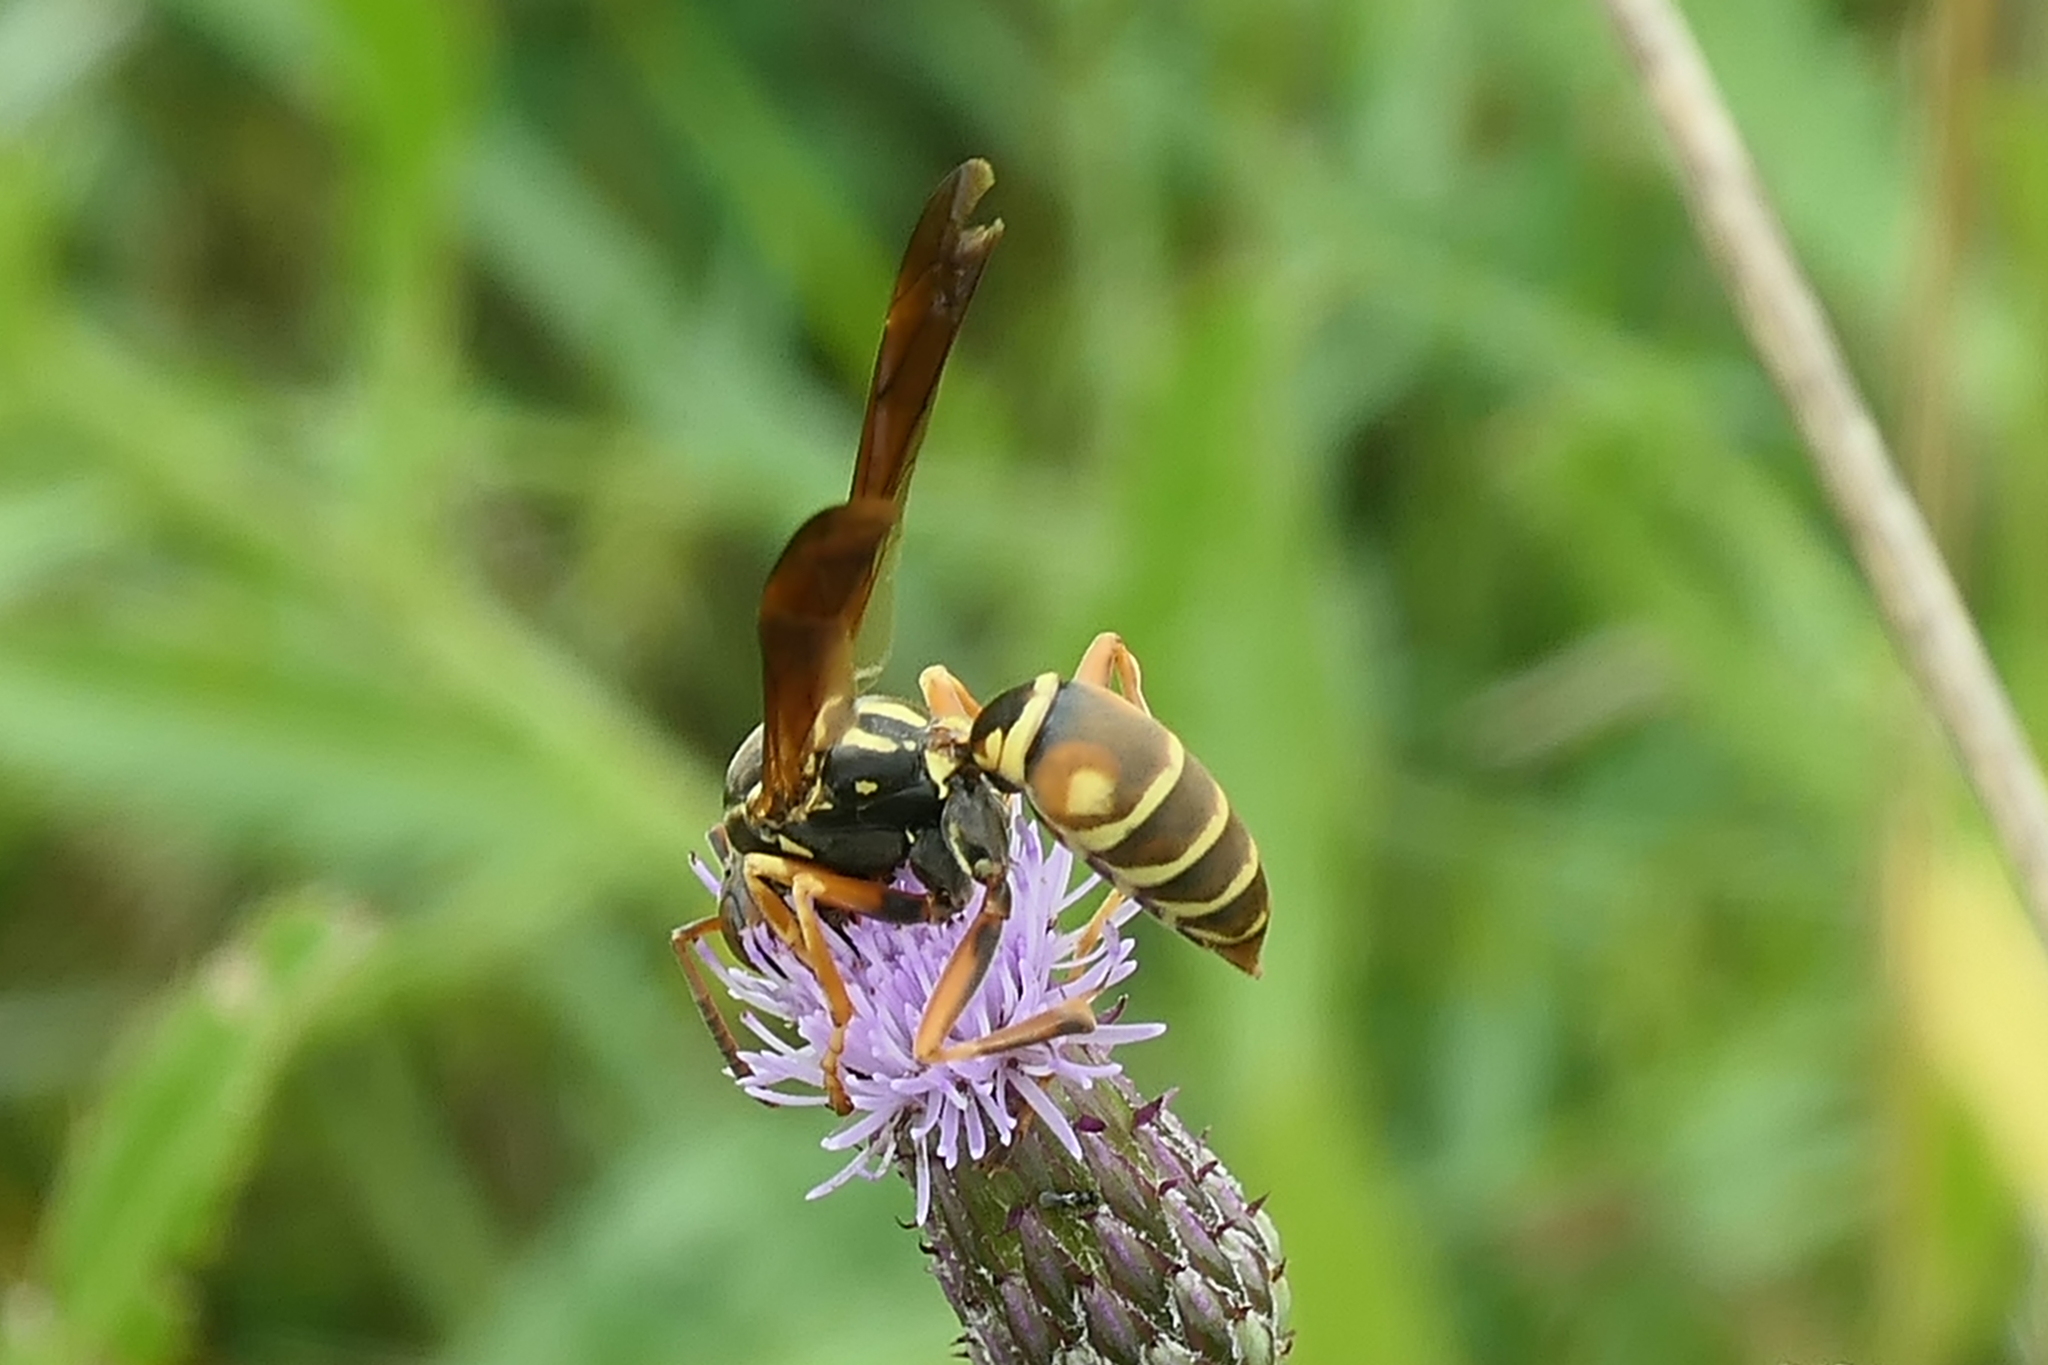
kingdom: Animalia
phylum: Arthropoda
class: Insecta
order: Hymenoptera
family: Eumenidae
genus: Polistes
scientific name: Polistes fuscatus
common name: Dark paper wasp
